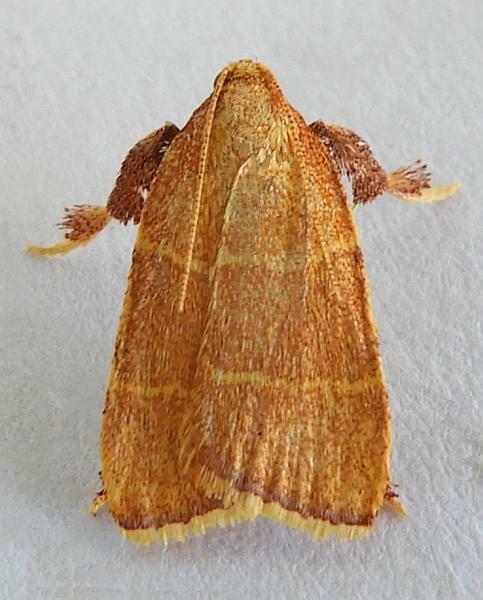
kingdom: Animalia
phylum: Arthropoda
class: Insecta
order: Lepidoptera
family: Pyralidae
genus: Parachma
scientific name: Parachma ochracealis
